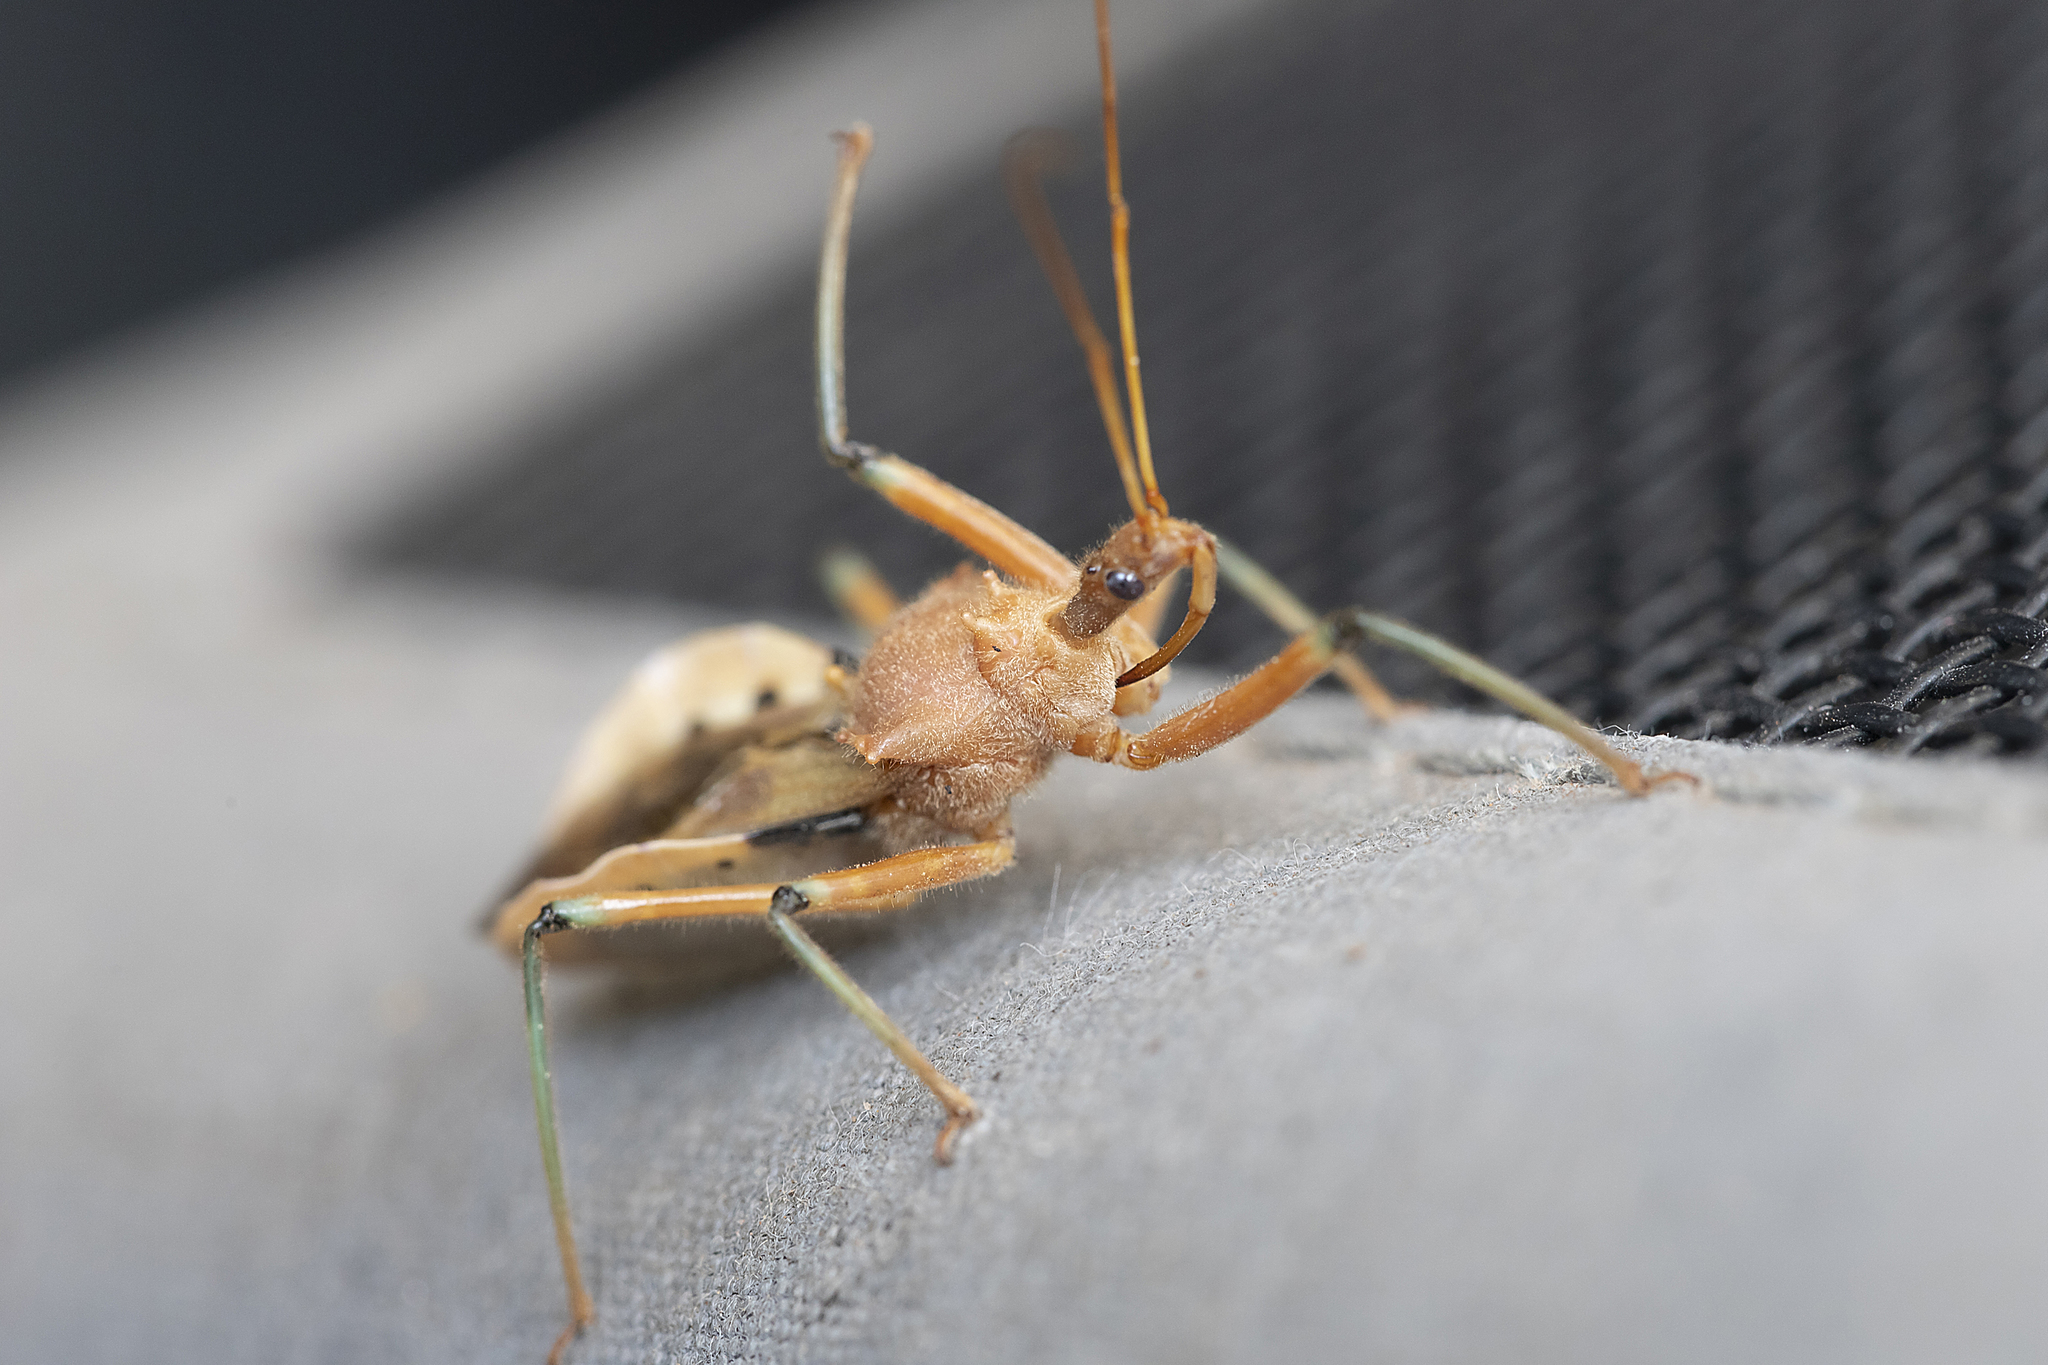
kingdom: Animalia
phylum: Arthropoda
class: Insecta
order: Hemiptera
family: Reduviidae
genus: Pristhesancus
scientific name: Pristhesancus plagipennis
